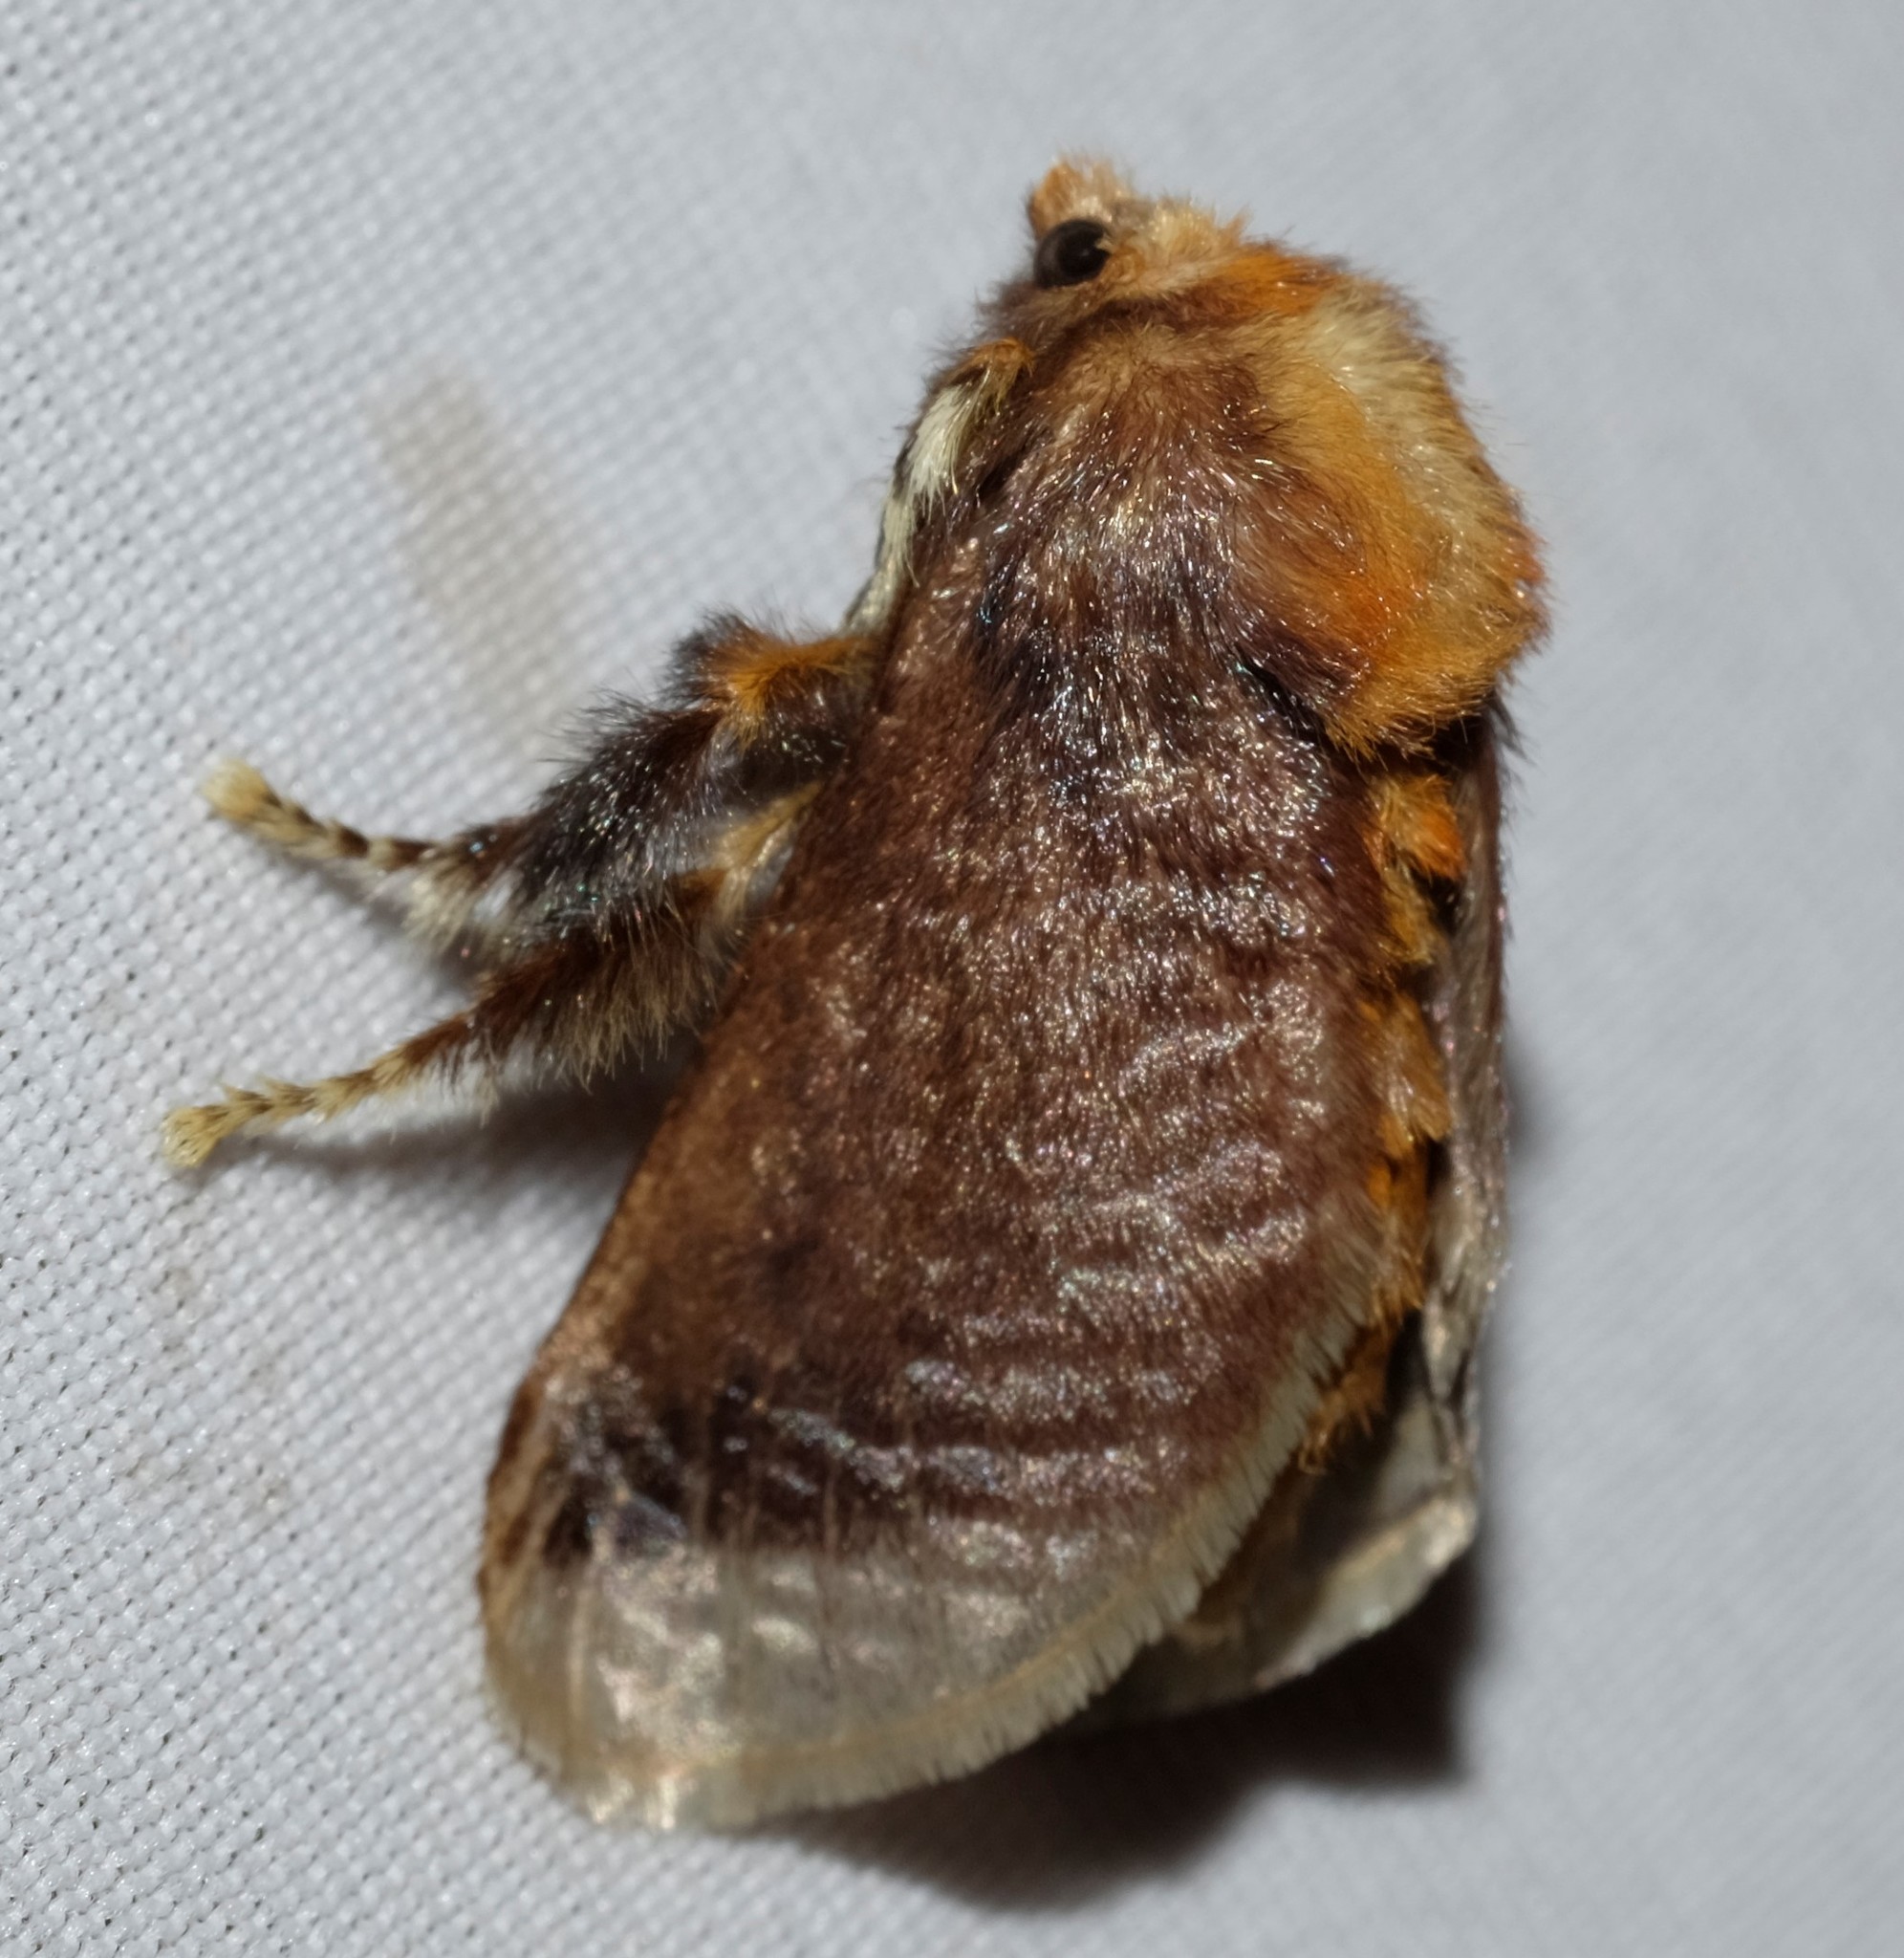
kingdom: Animalia
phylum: Arthropoda
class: Insecta
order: Lepidoptera
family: Limacodidae
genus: Doratifera
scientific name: Doratifera oxleyi
